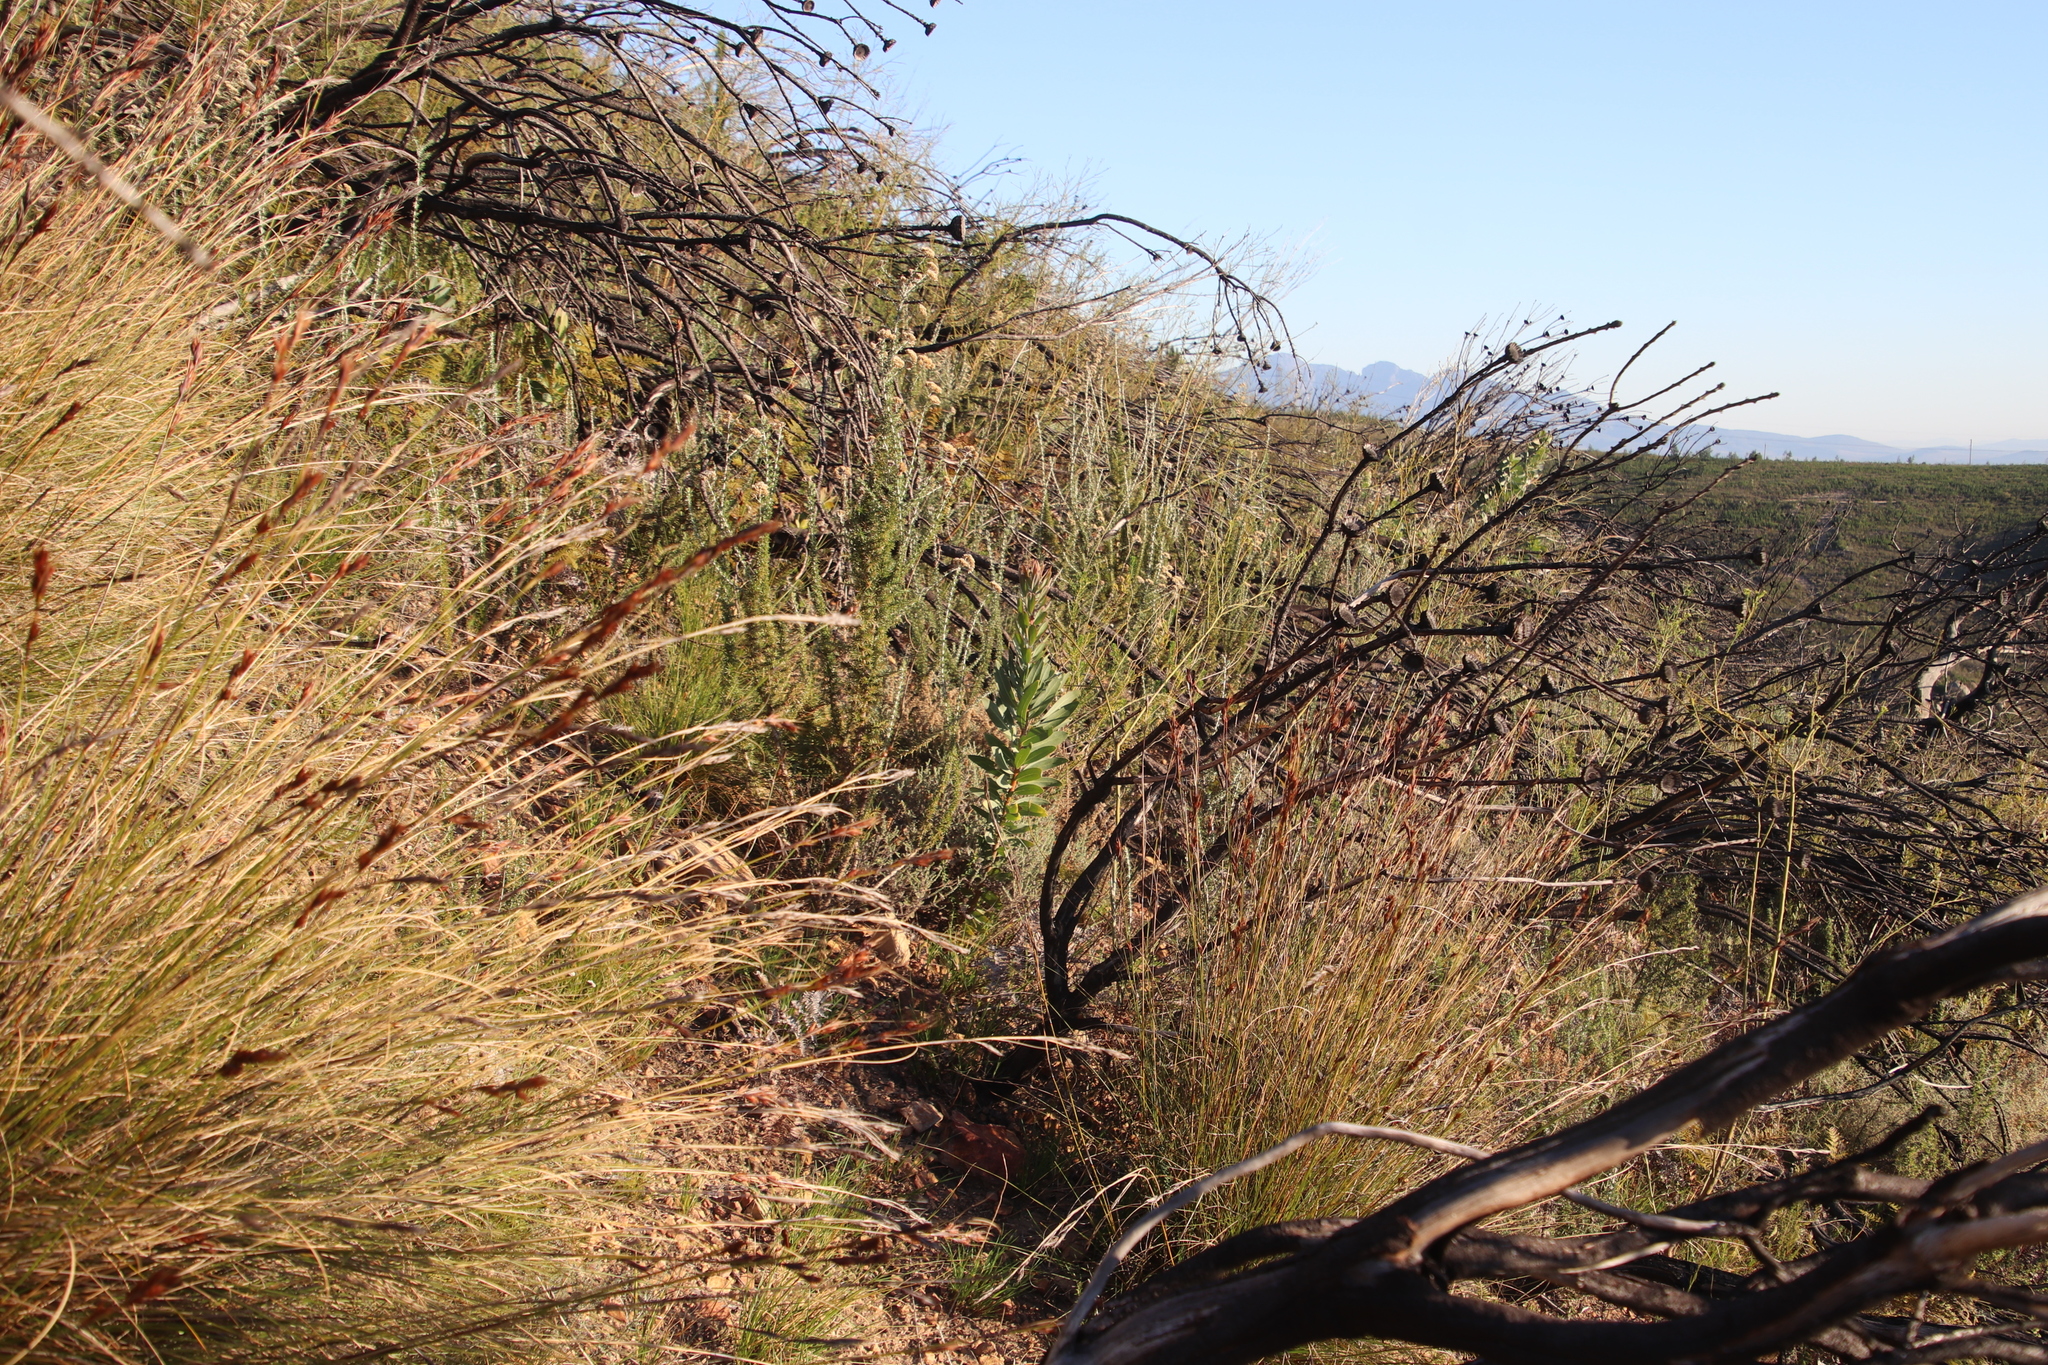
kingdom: Plantae
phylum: Tracheophyta
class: Magnoliopsida
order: Proteales
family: Proteaceae
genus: Protea
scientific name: Protea laurifolia
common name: Grey-leaf sugarbsh
